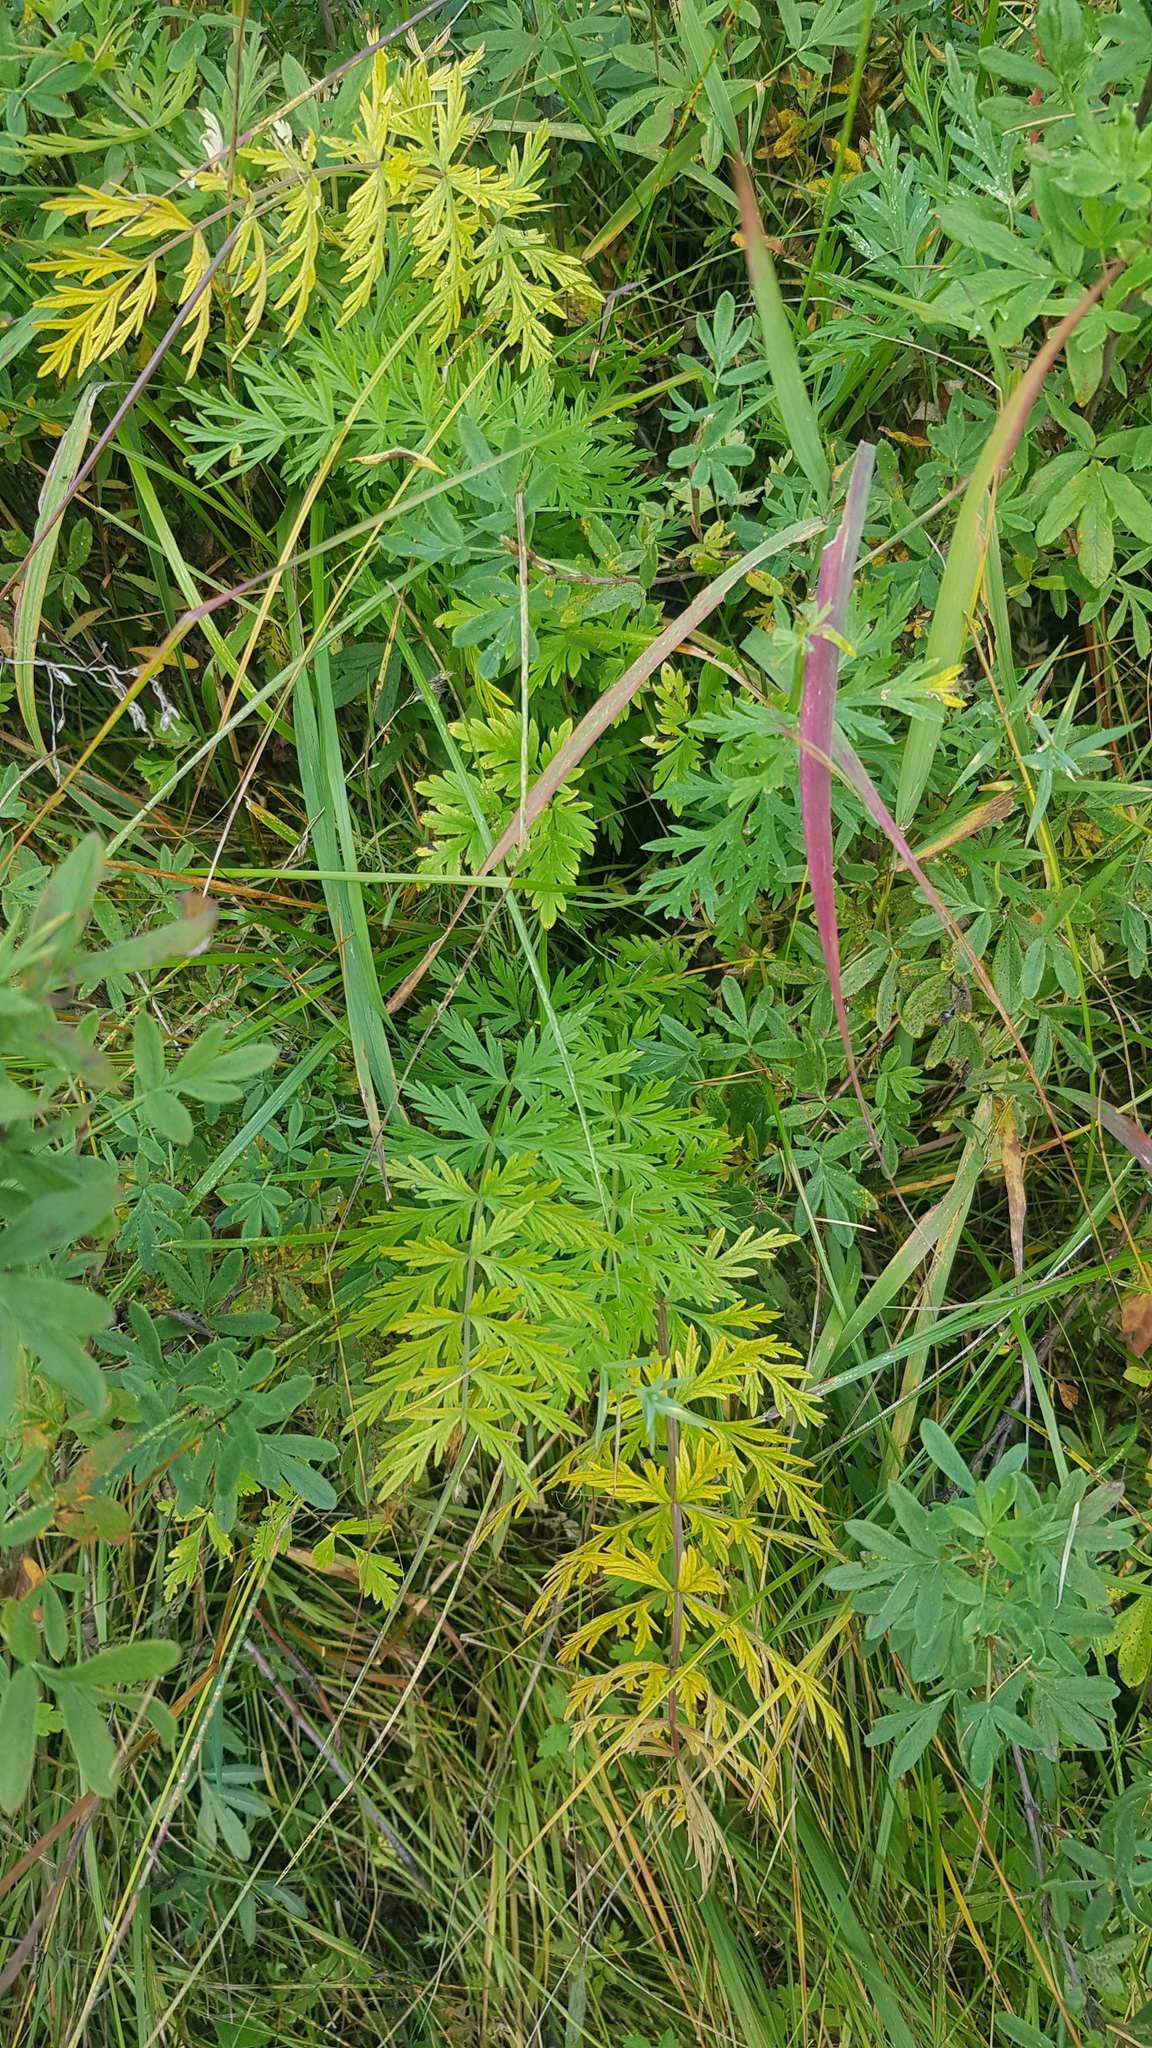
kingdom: Plantae
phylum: Tracheophyta
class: Magnoliopsida
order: Apiales
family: Apiaceae
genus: Seseli
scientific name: Seseli condensatum
